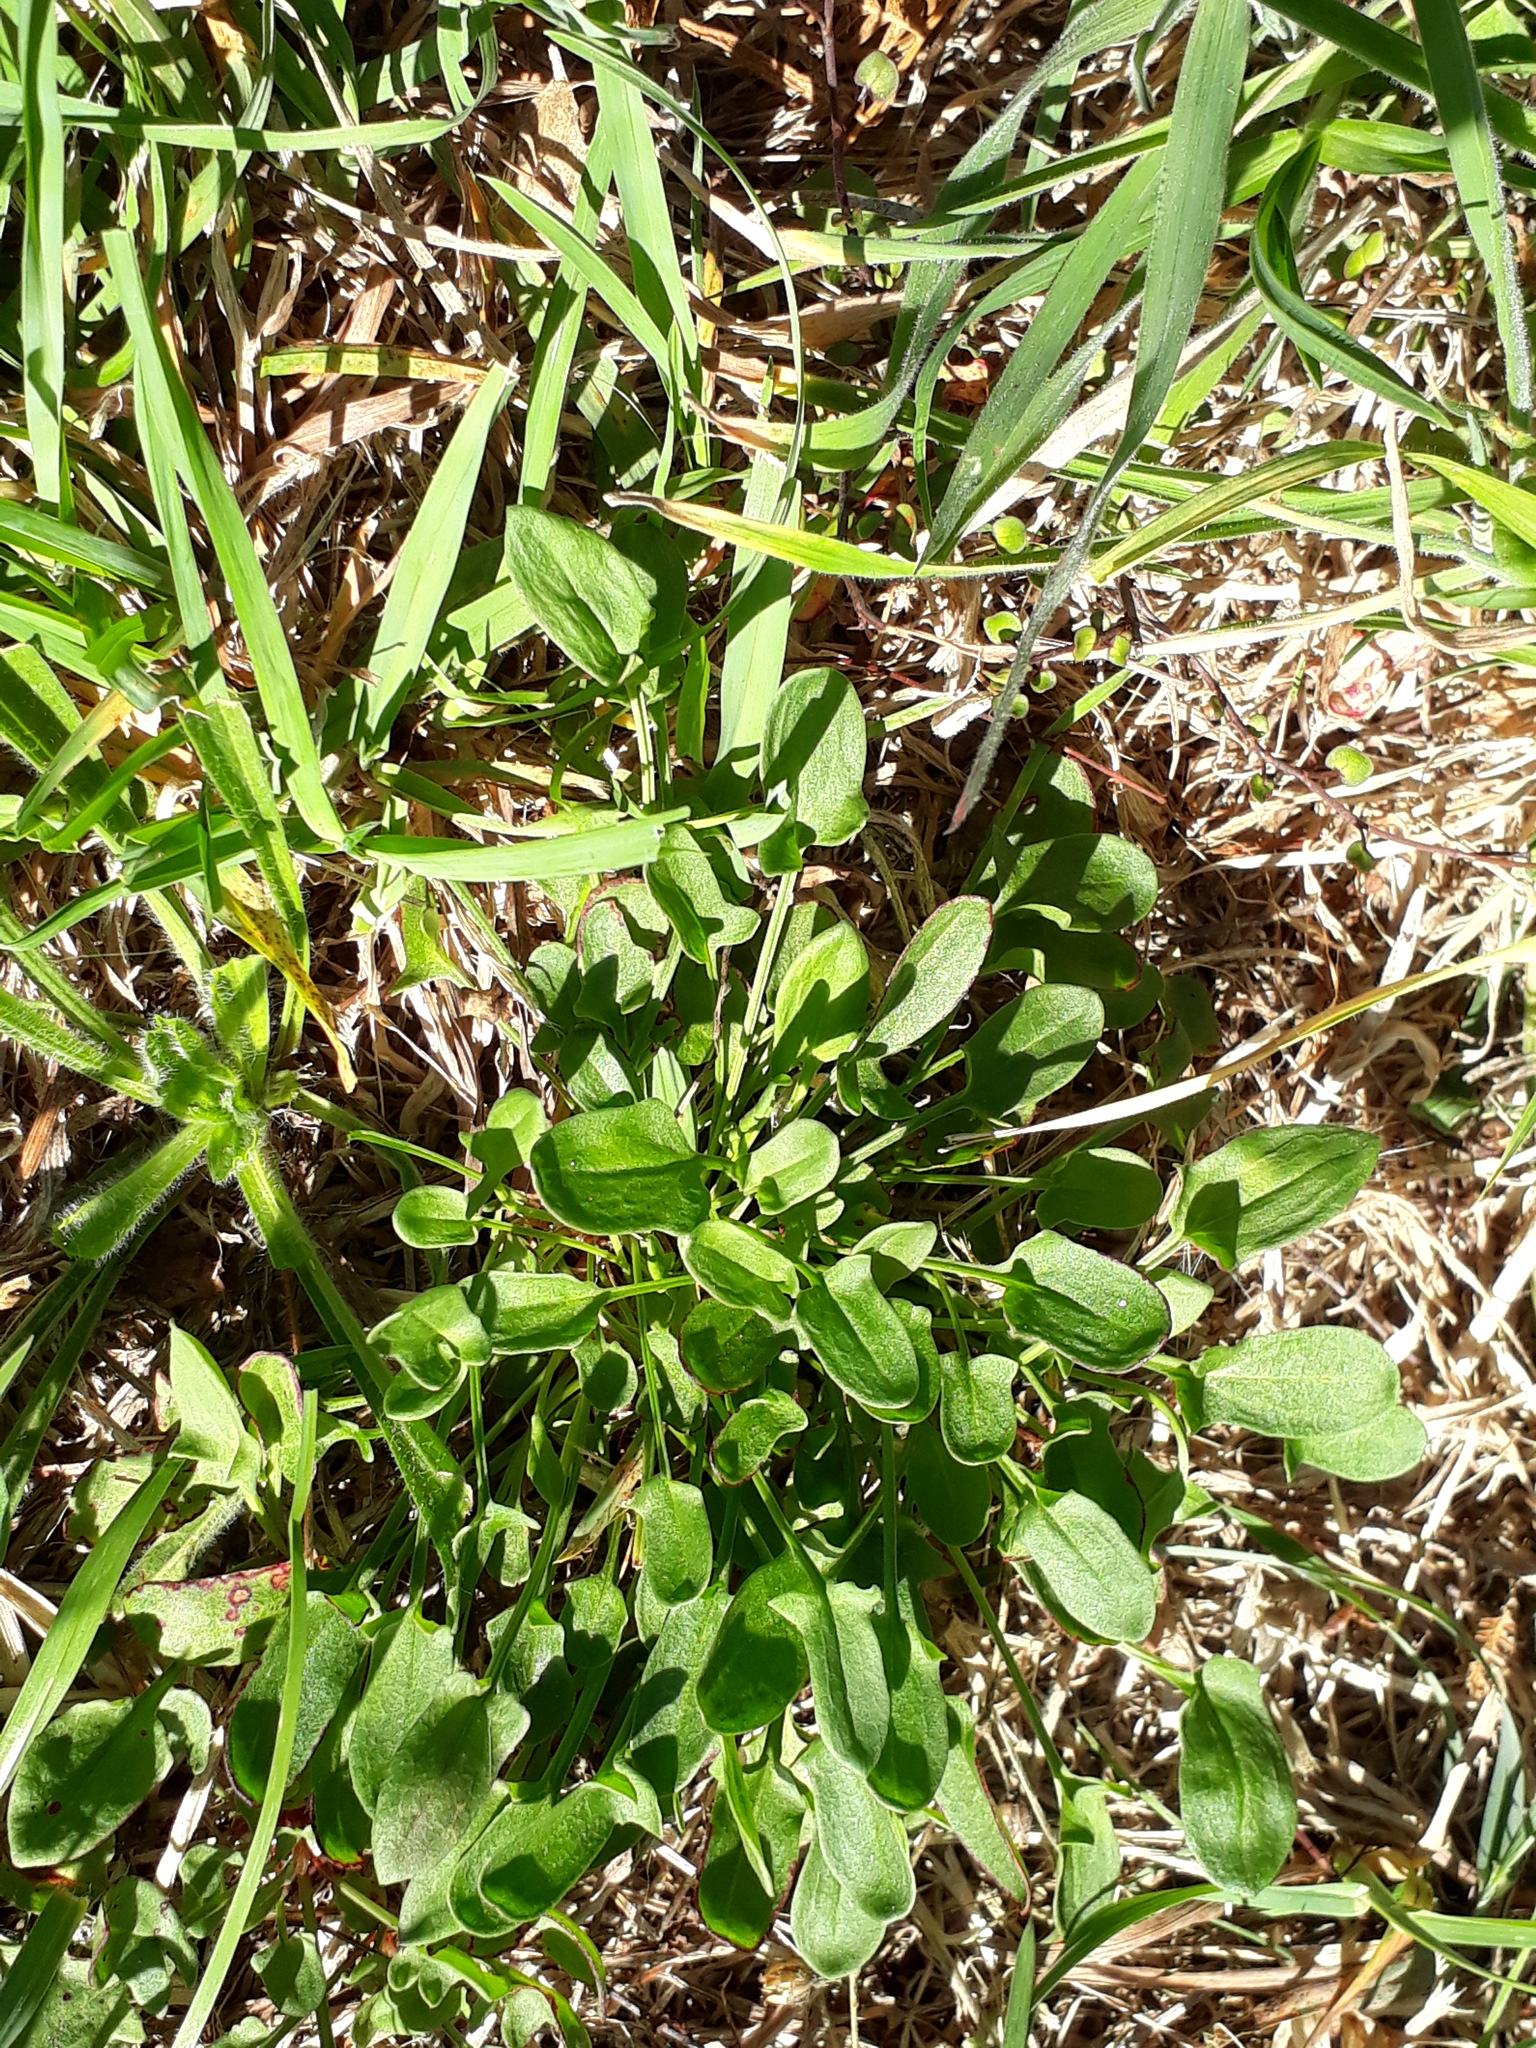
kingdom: Plantae
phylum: Tracheophyta
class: Magnoliopsida
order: Caryophyllales
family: Polygonaceae
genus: Rumex
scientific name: Rumex acetosella
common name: Common sheep sorrel
